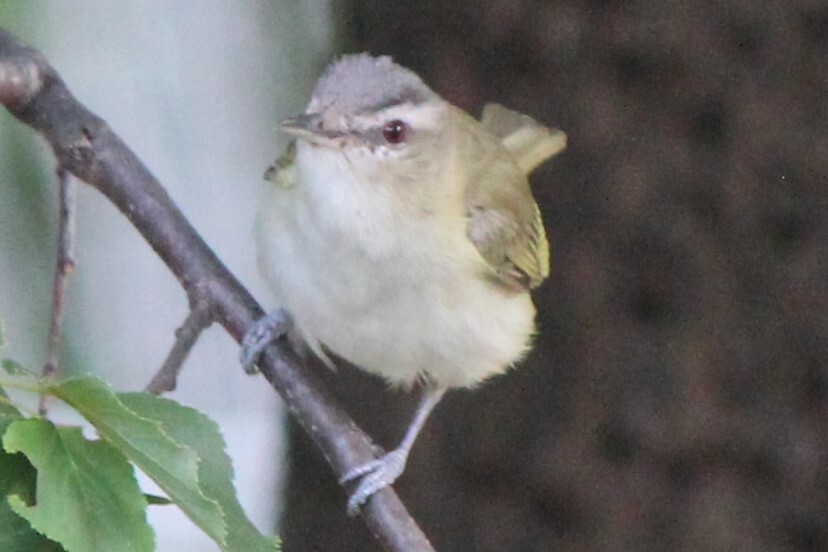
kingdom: Animalia
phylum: Chordata
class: Aves
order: Passeriformes
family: Vireonidae
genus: Vireo
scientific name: Vireo olivaceus
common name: Red-eyed vireo
